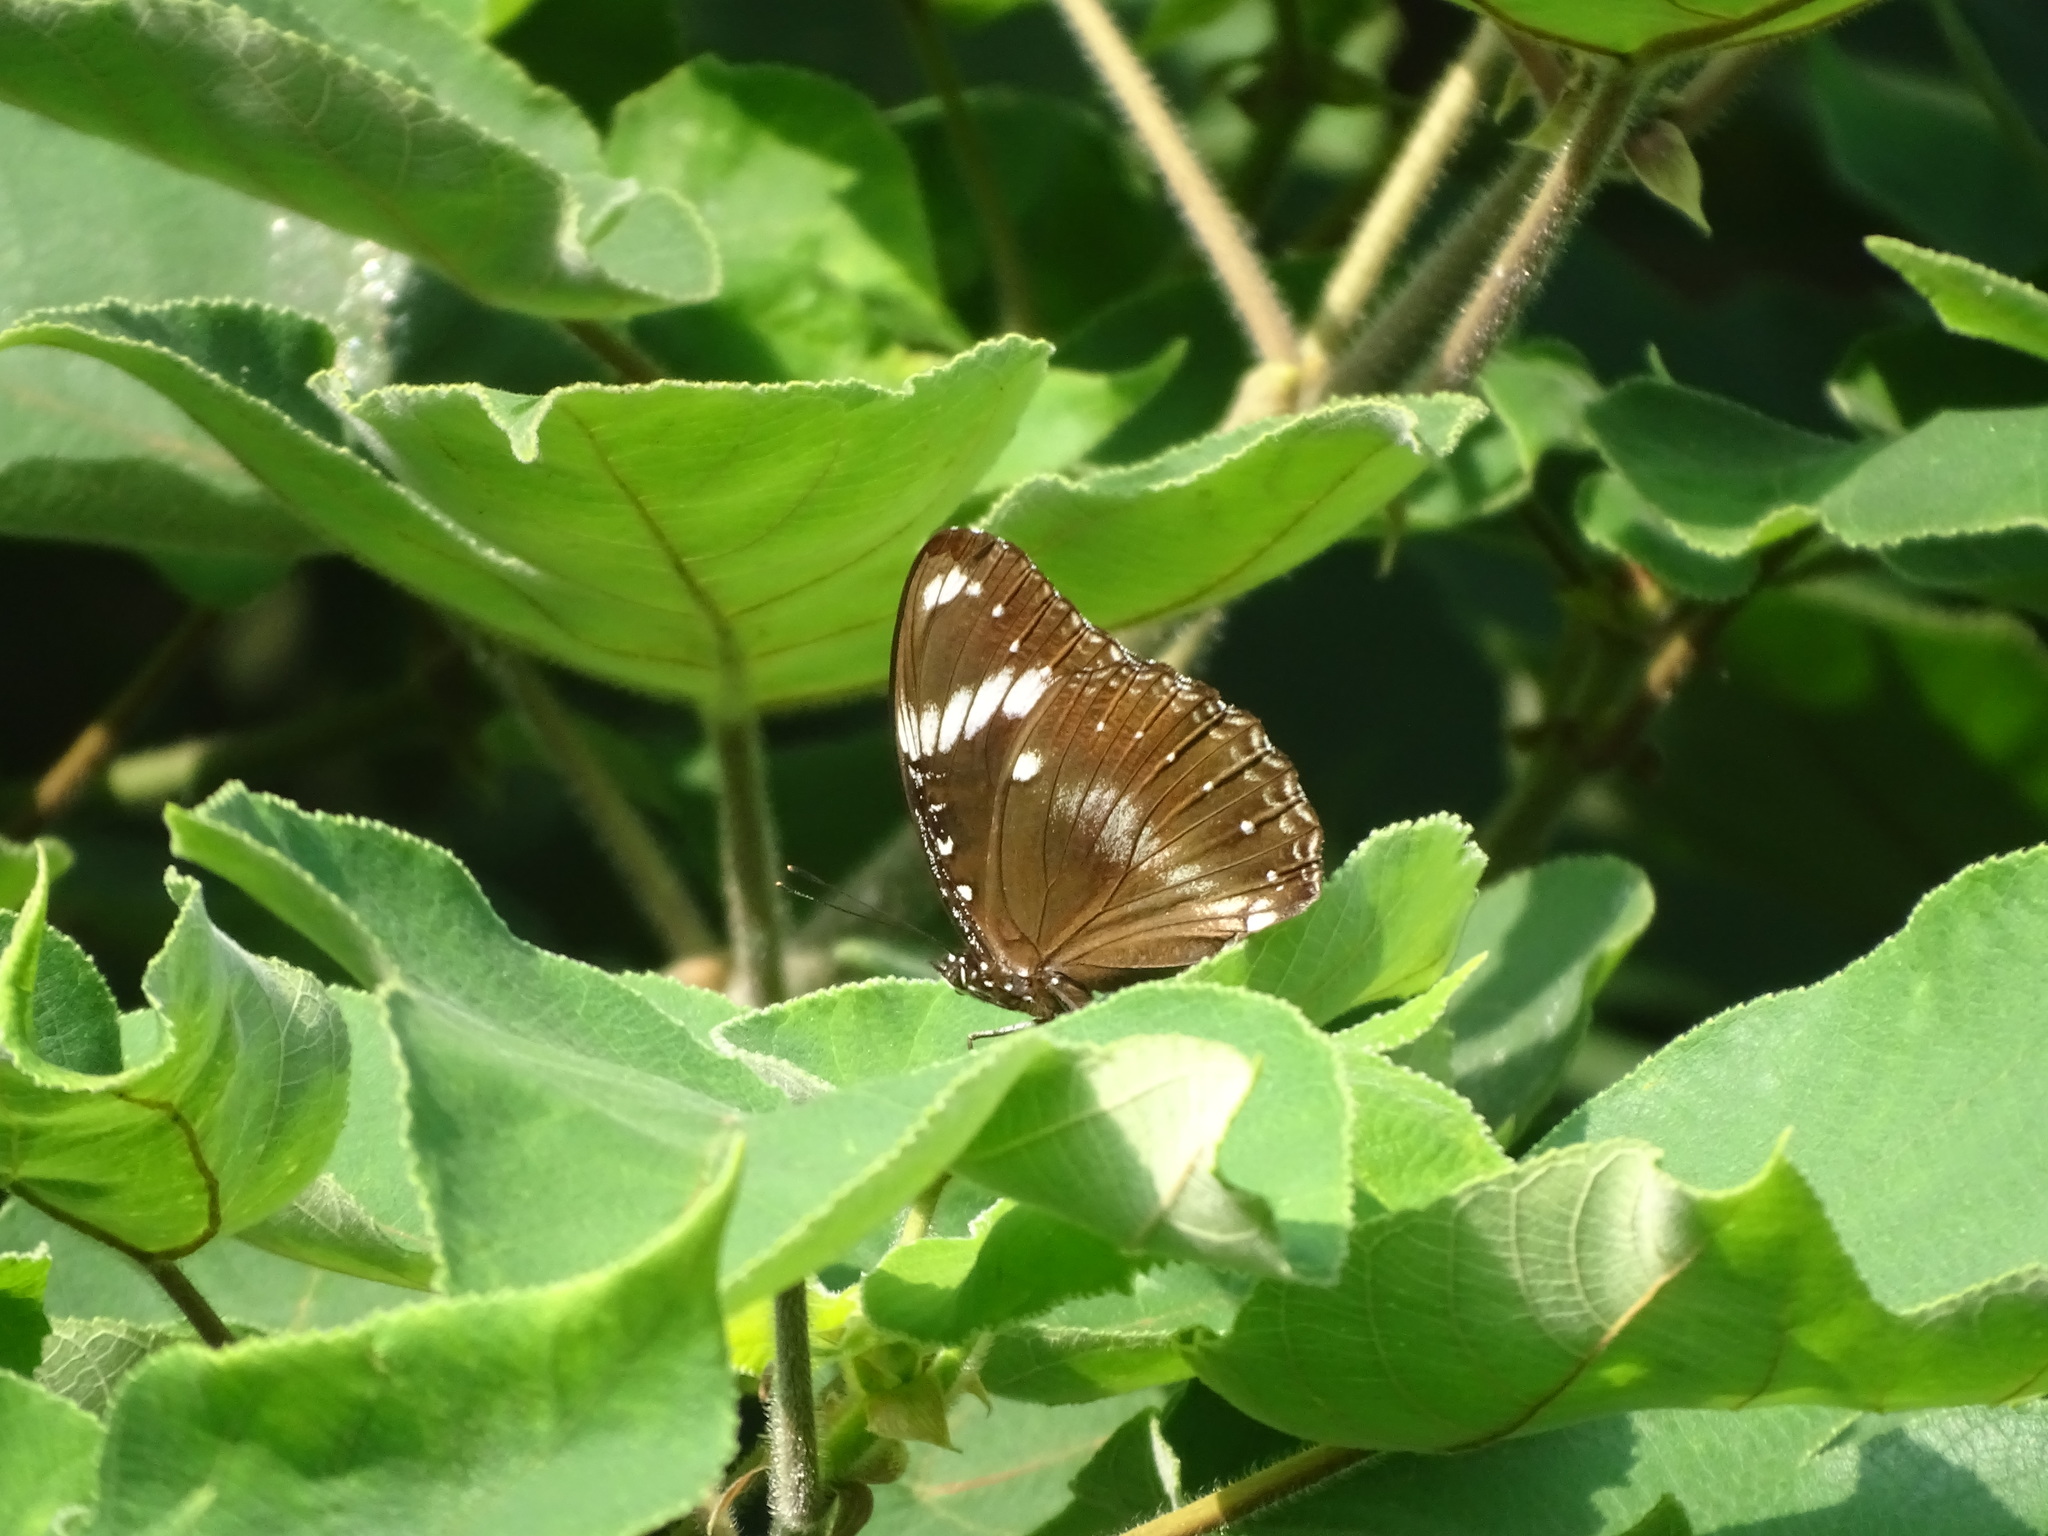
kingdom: Animalia
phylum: Arthropoda
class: Insecta
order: Lepidoptera
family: Nymphalidae
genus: Hypolimnas
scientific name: Hypolimnas bolina
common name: Great eggfly
